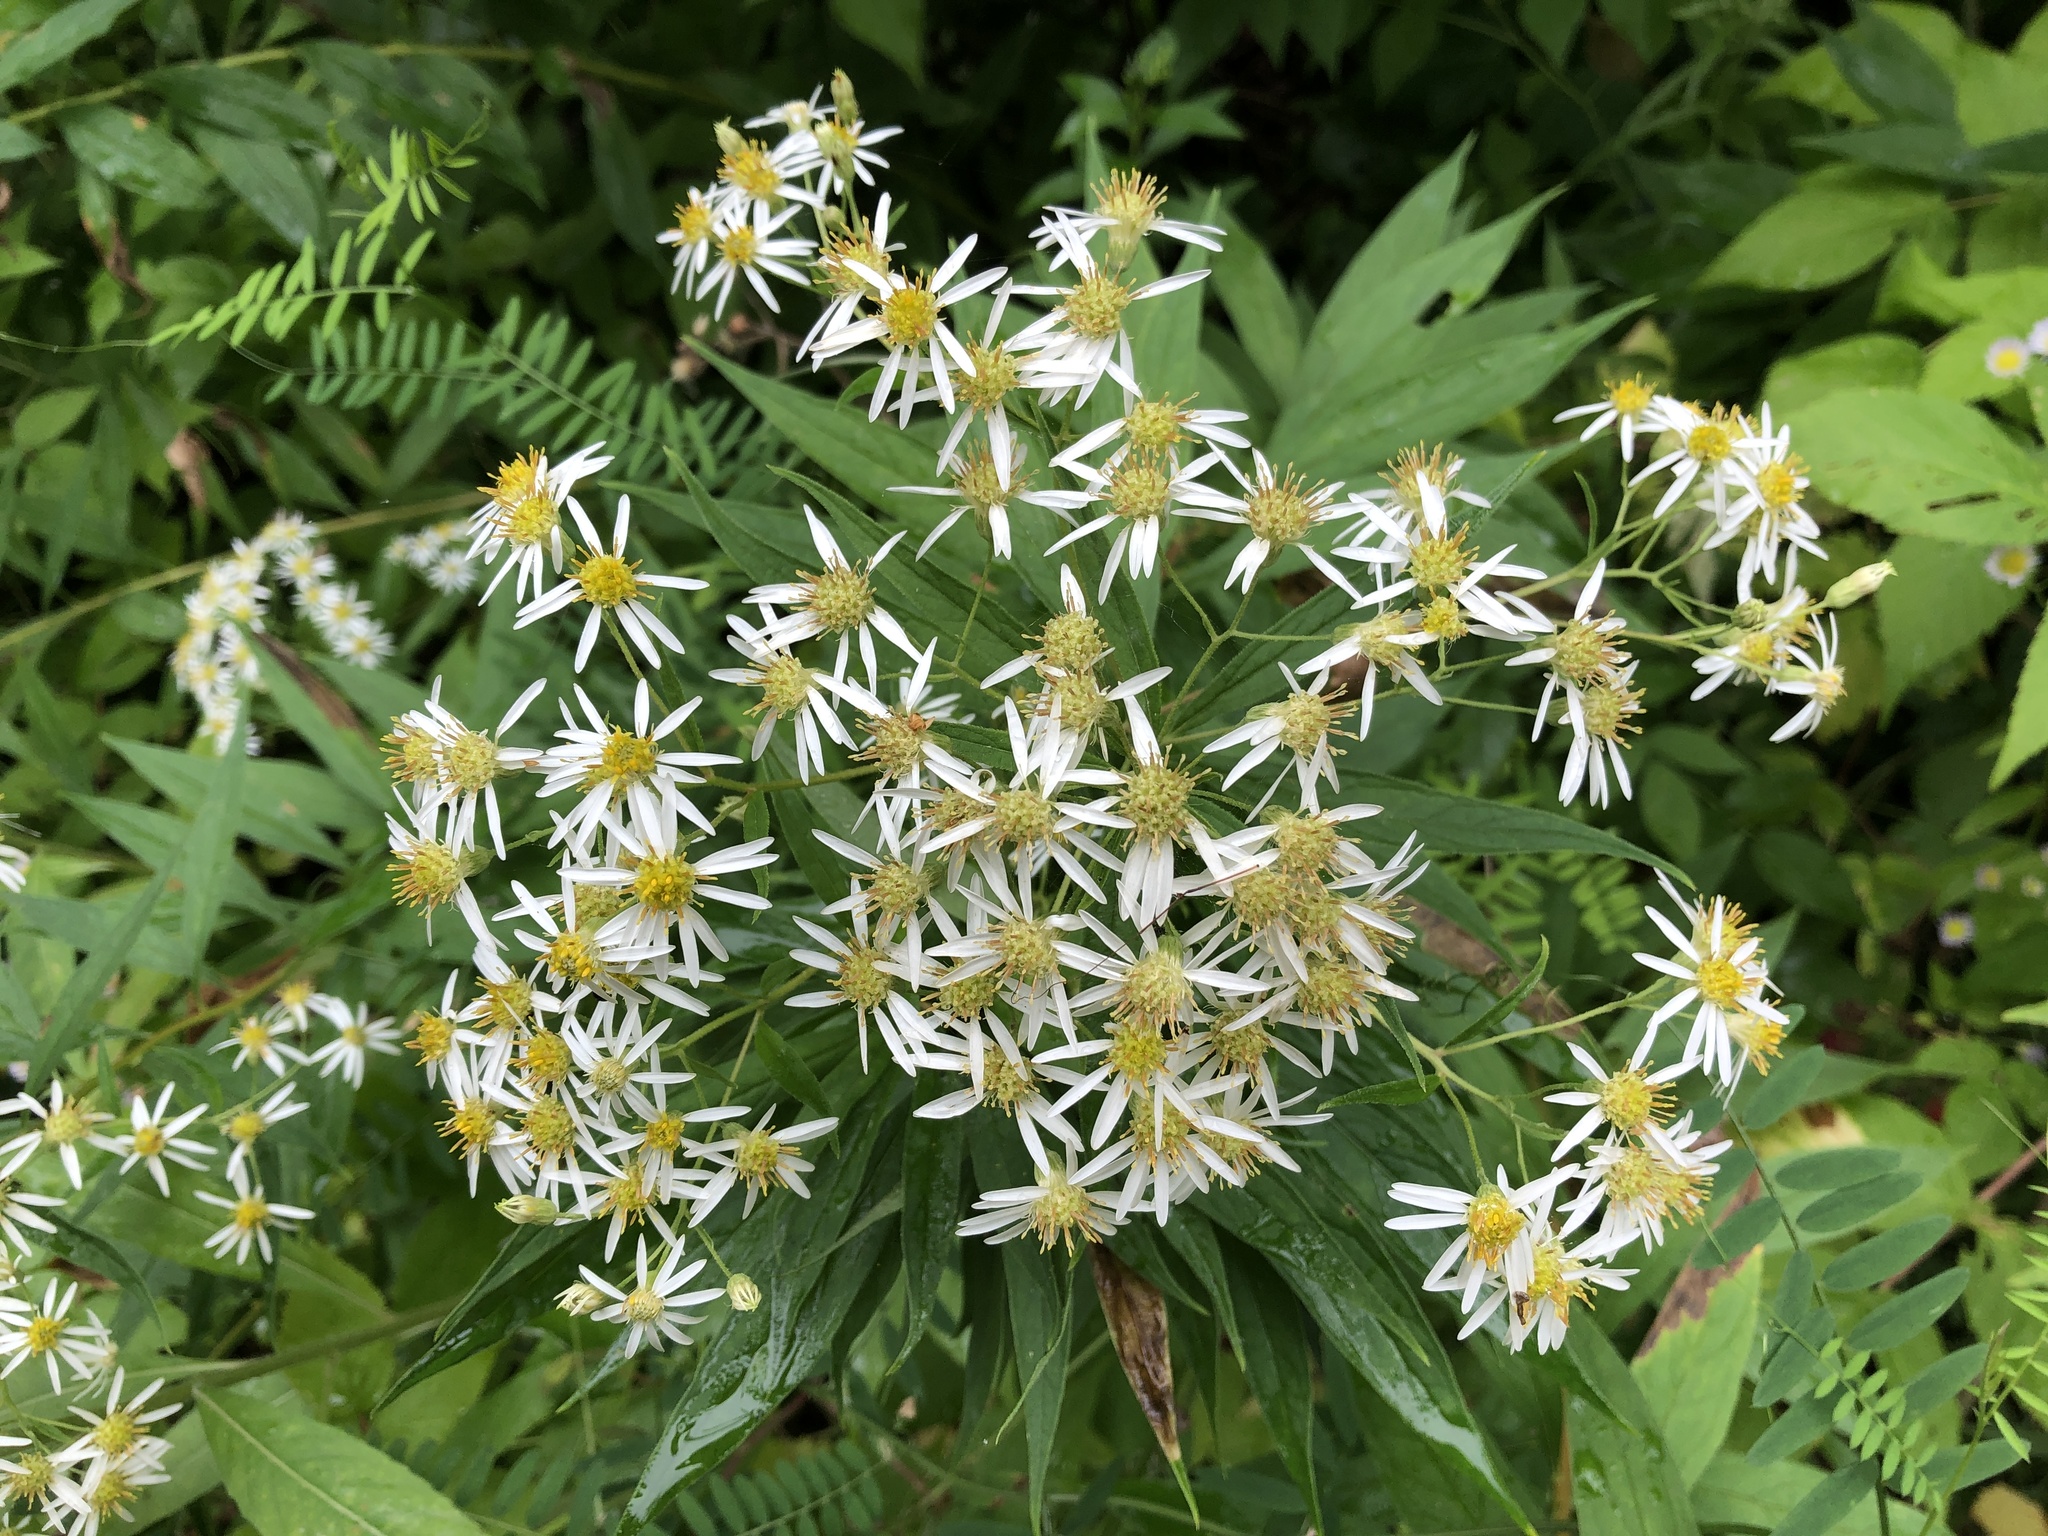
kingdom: Plantae
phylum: Tracheophyta
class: Magnoliopsida
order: Asterales
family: Asteraceae
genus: Doellingeria
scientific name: Doellingeria umbellata
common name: Flat-top white aster
